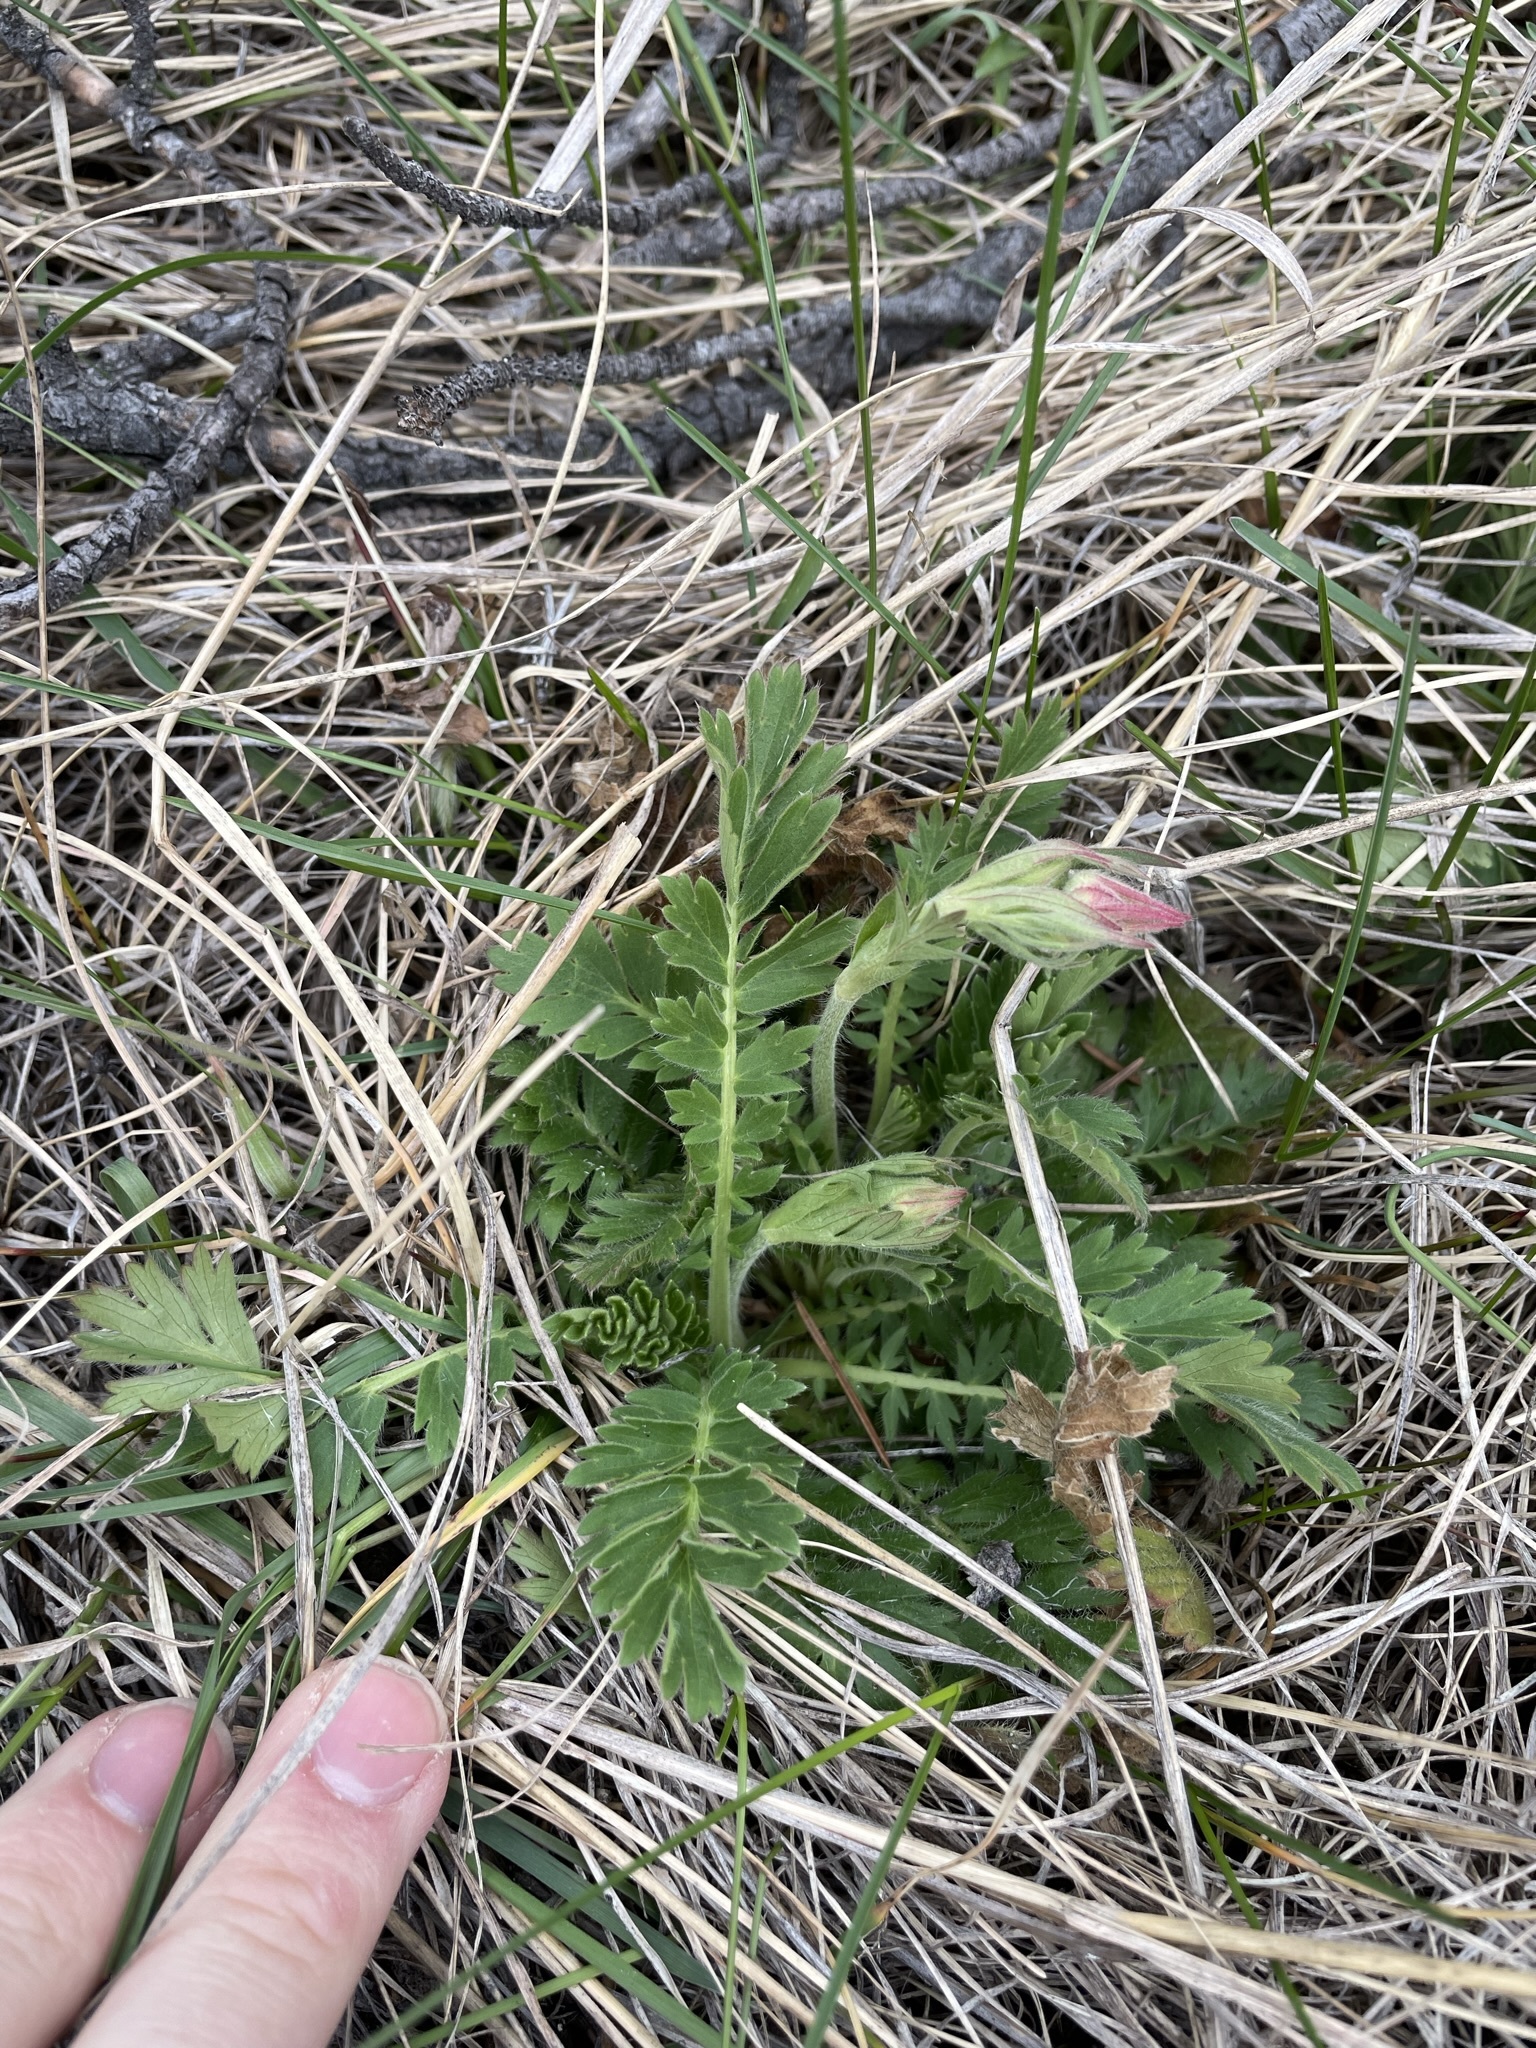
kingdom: Plantae
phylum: Tracheophyta
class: Magnoliopsida
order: Rosales
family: Rosaceae
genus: Geum
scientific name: Geum triflorum
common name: Old man's whiskers
